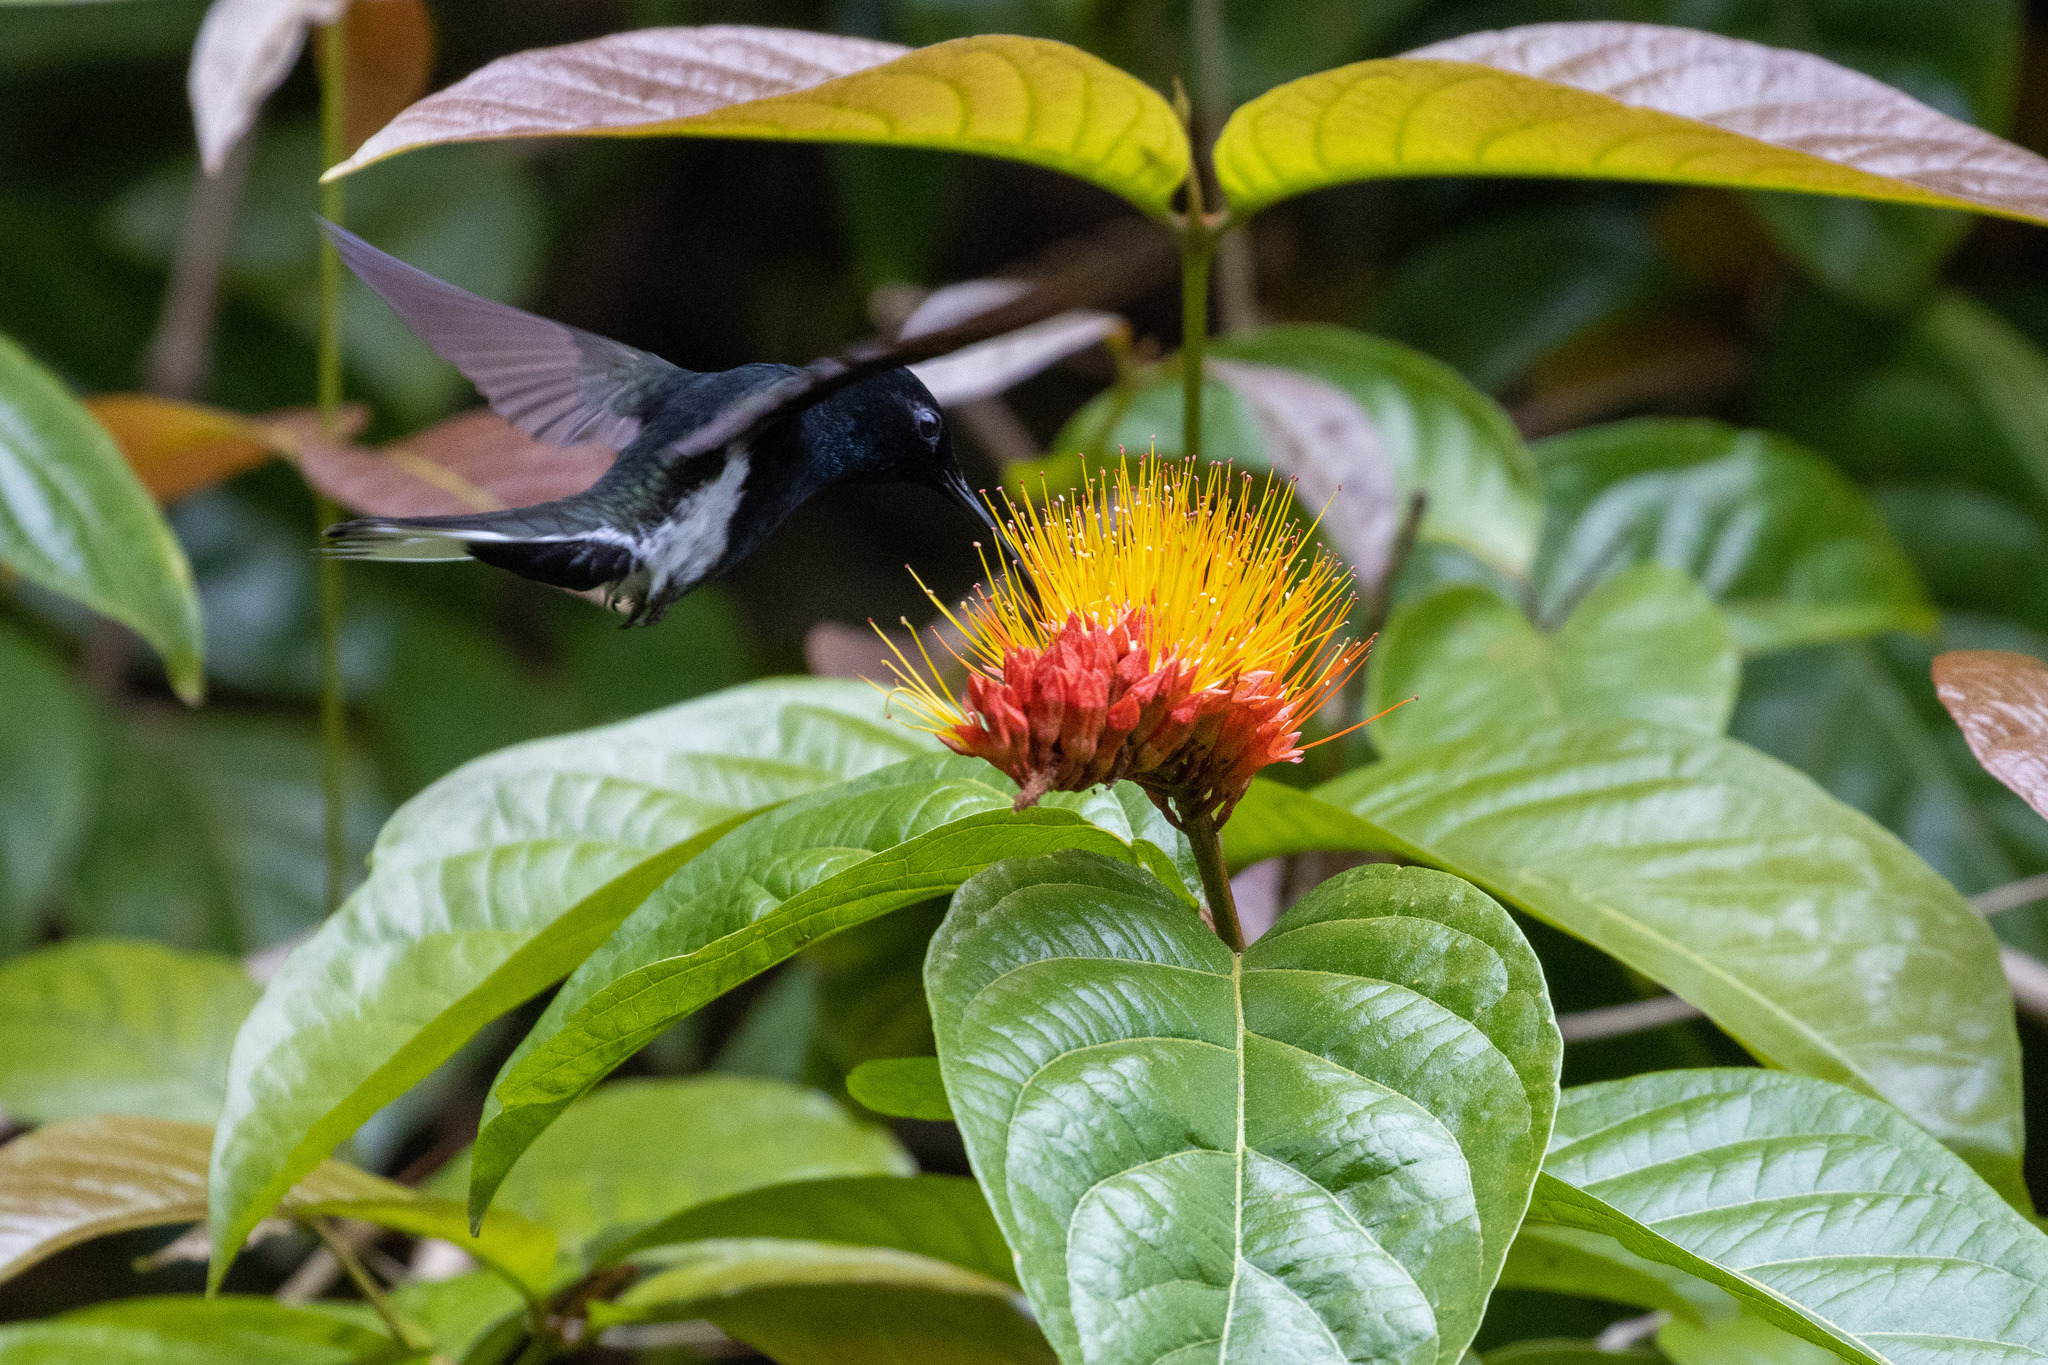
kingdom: Animalia
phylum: Chordata
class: Aves
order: Apodiformes
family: Trochilidae
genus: Florisuga
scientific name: Florisuga fusca
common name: Black jacobin
